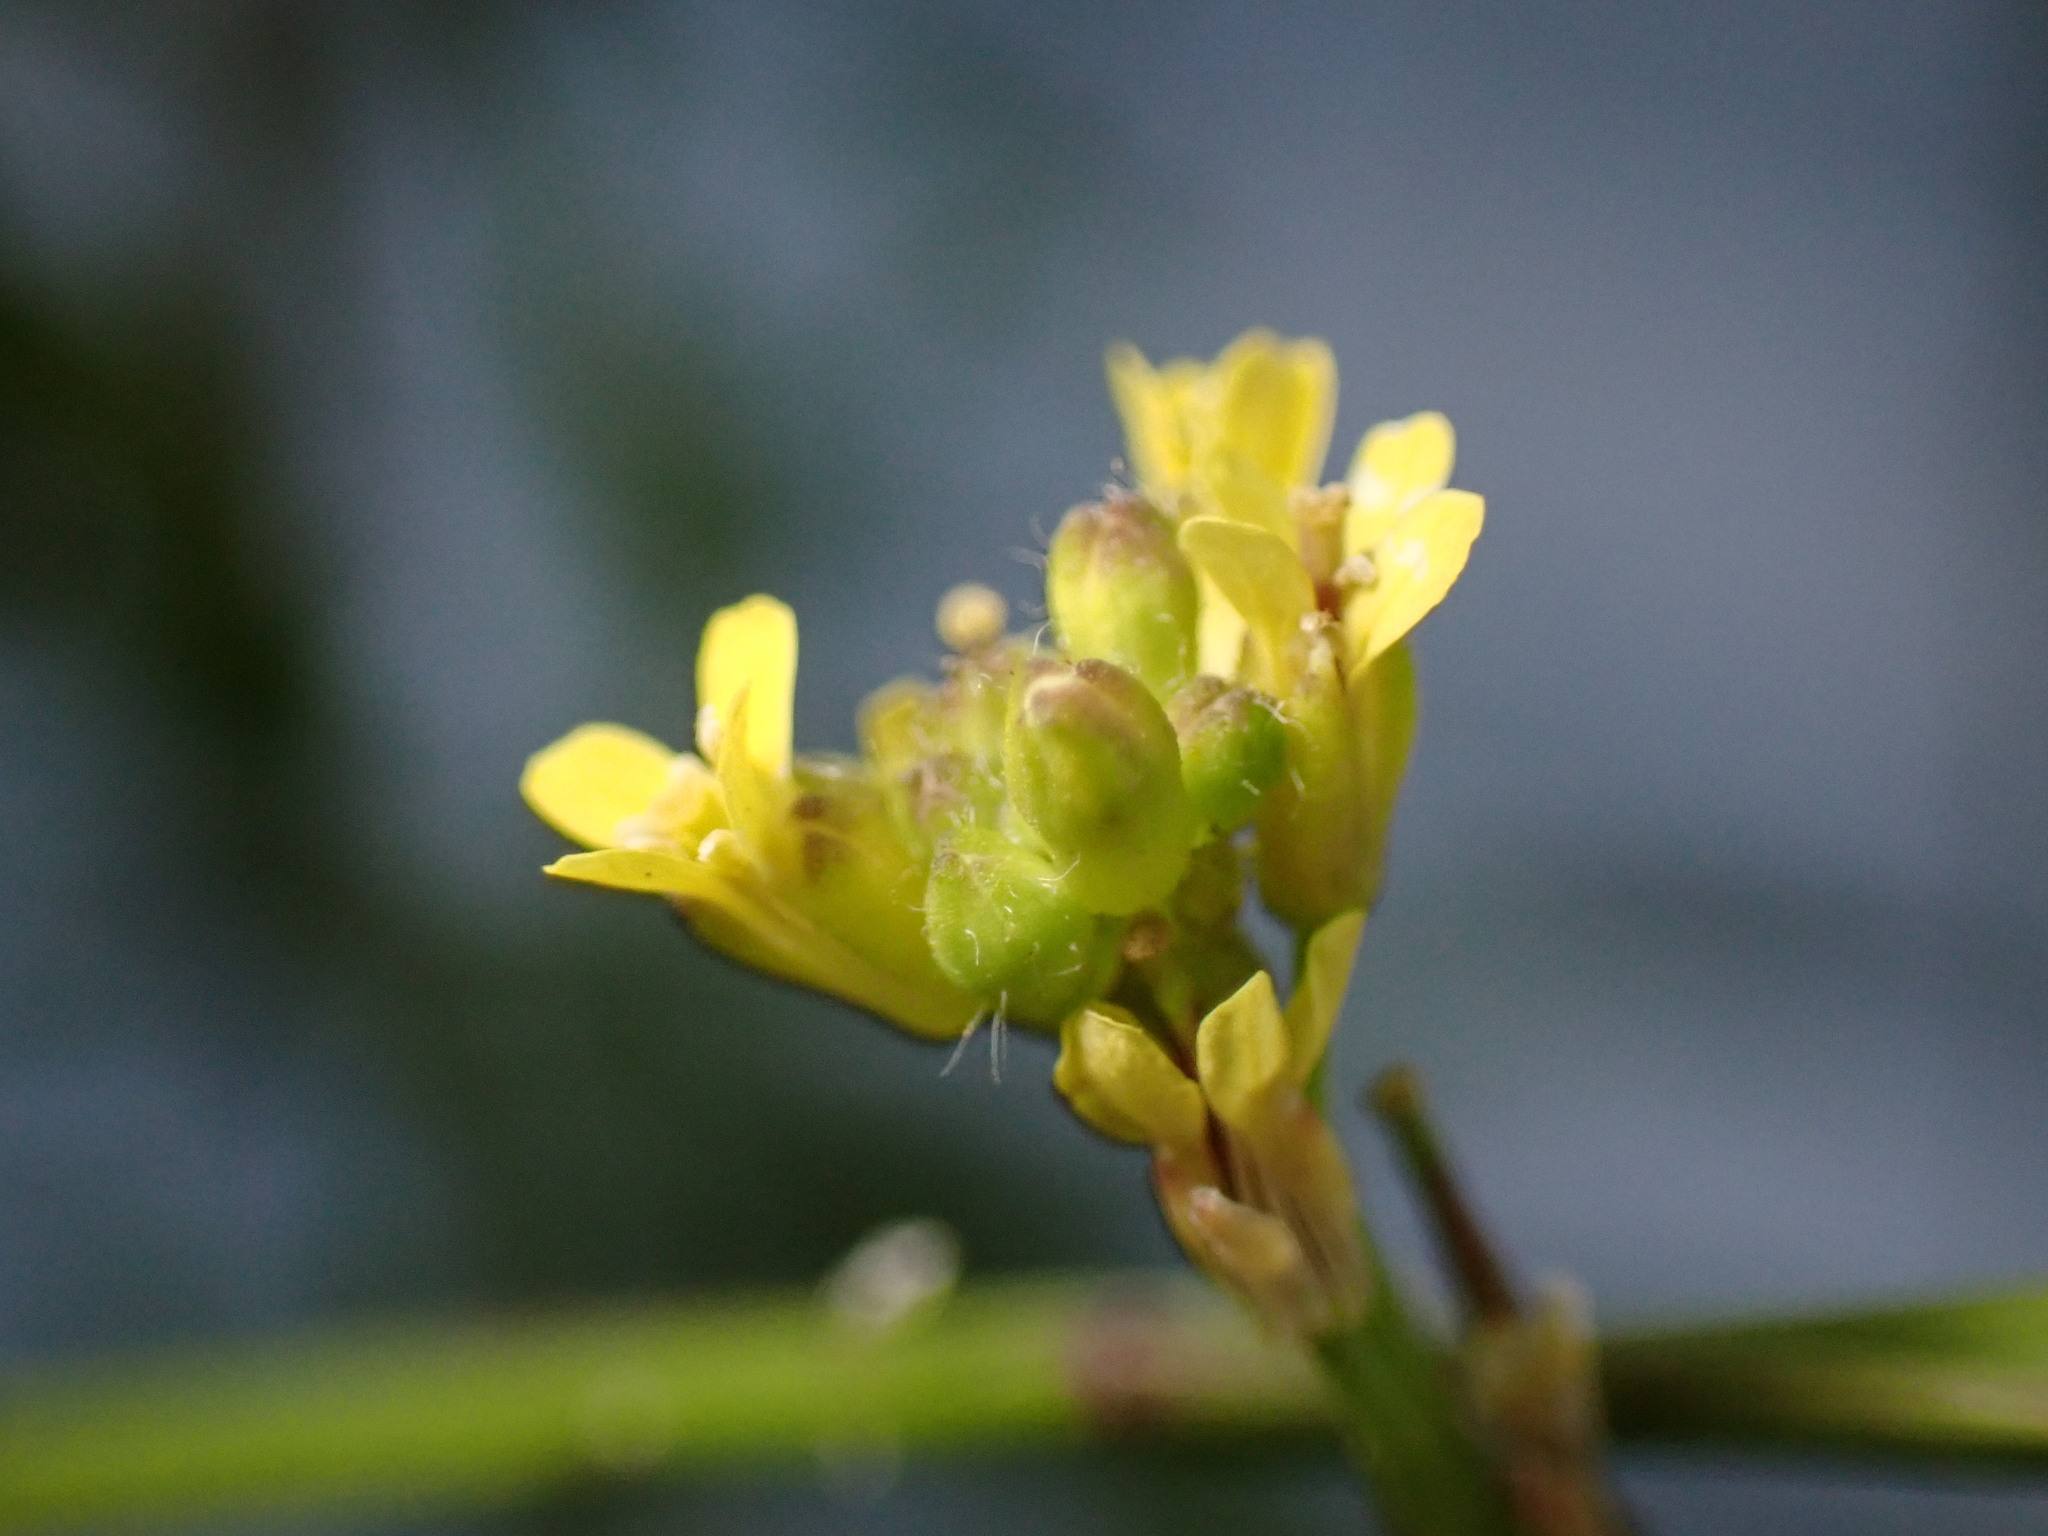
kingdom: Plantae
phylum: Tracheophyta
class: Magnoliopsida
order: Brassicales
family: Brassicaceae
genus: Sisymbrium
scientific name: Sisymbrium officinale
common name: Hedge mustard
